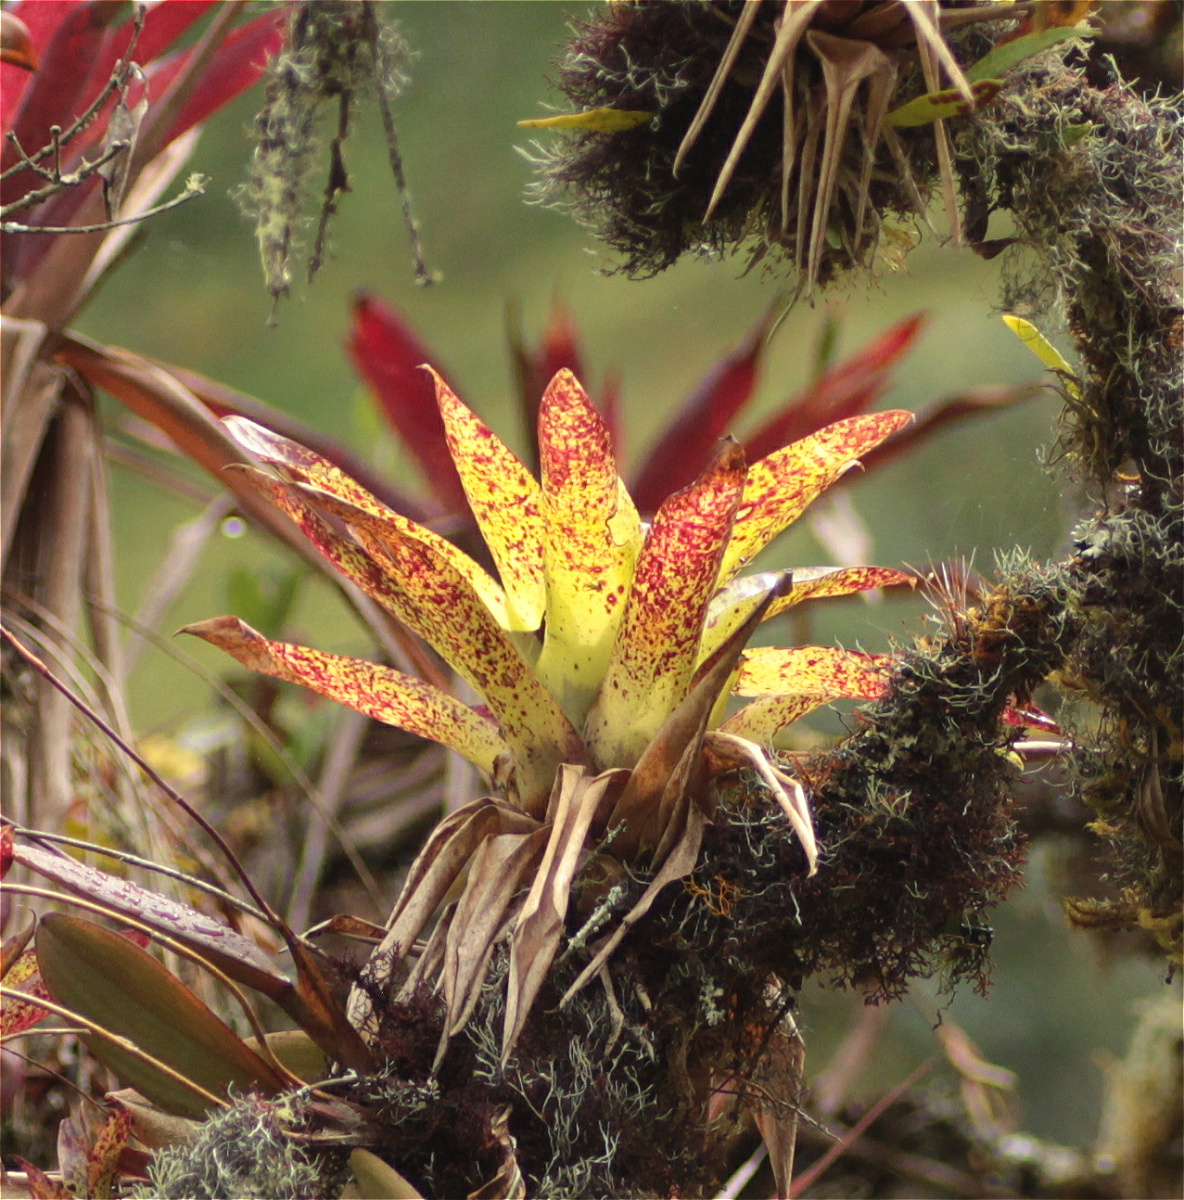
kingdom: Plantae
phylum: Tracheophyta
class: Liliopsida
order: Poales
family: Bromeliaceae
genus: Tillandsia
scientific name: Tillandsia biflora
